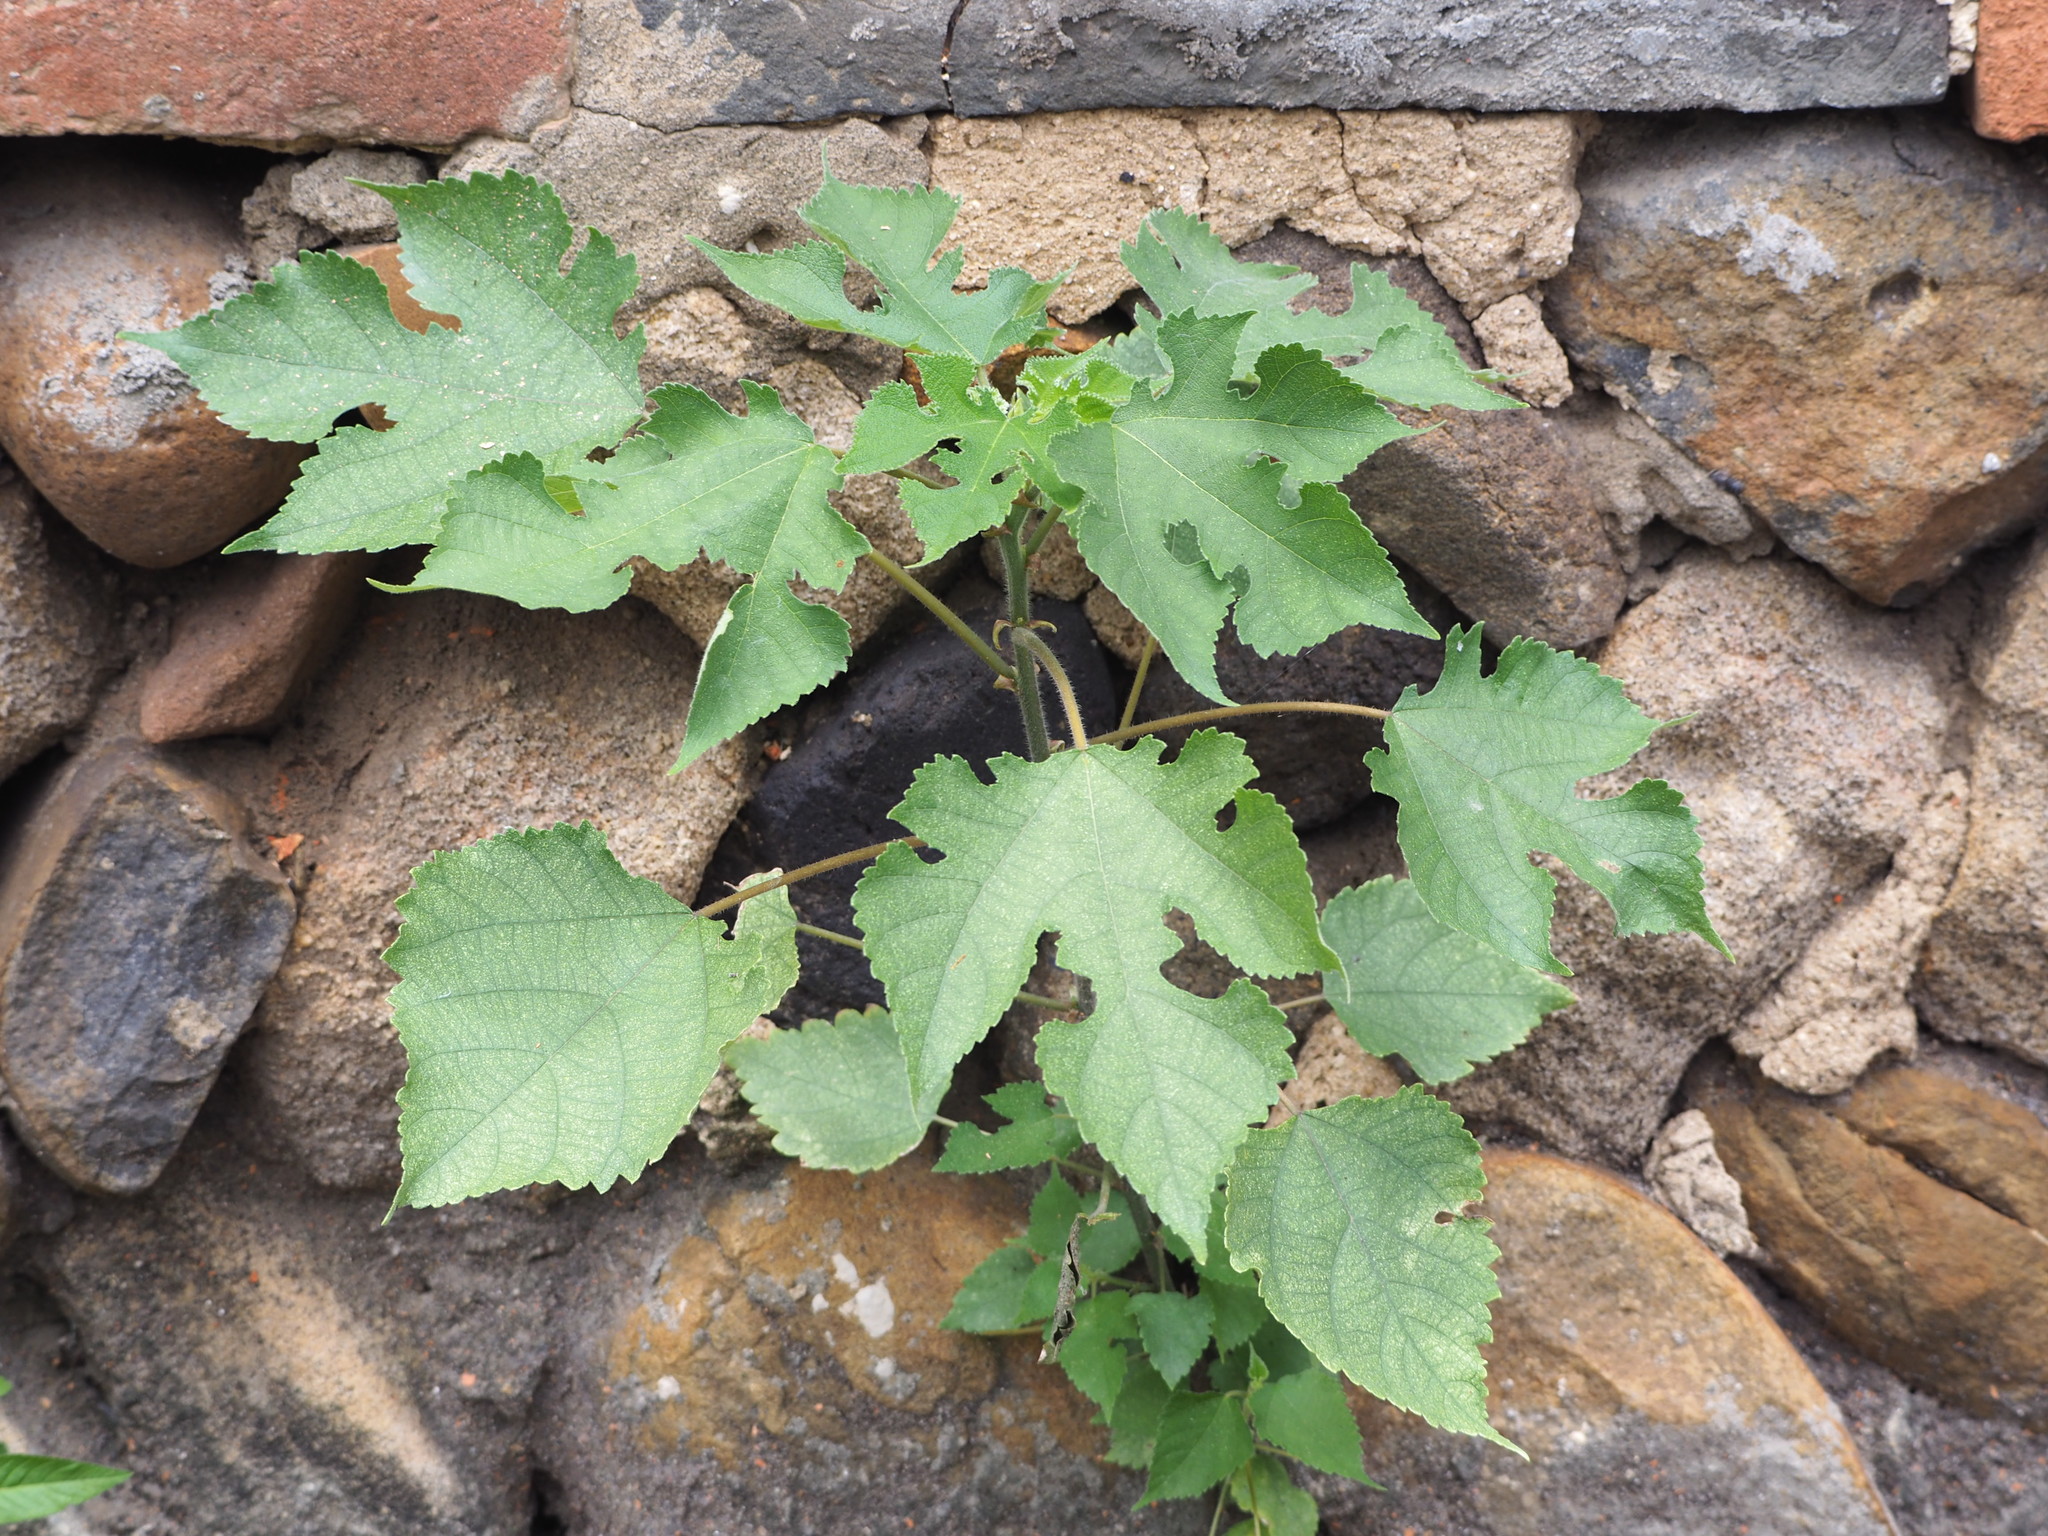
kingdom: Plantae
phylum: Tracheophyta
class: Magnoliopsida
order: Rosales
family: Moraceae
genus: Broussonetia
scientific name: Broussonetia papyrifera
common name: Paper mulberry
